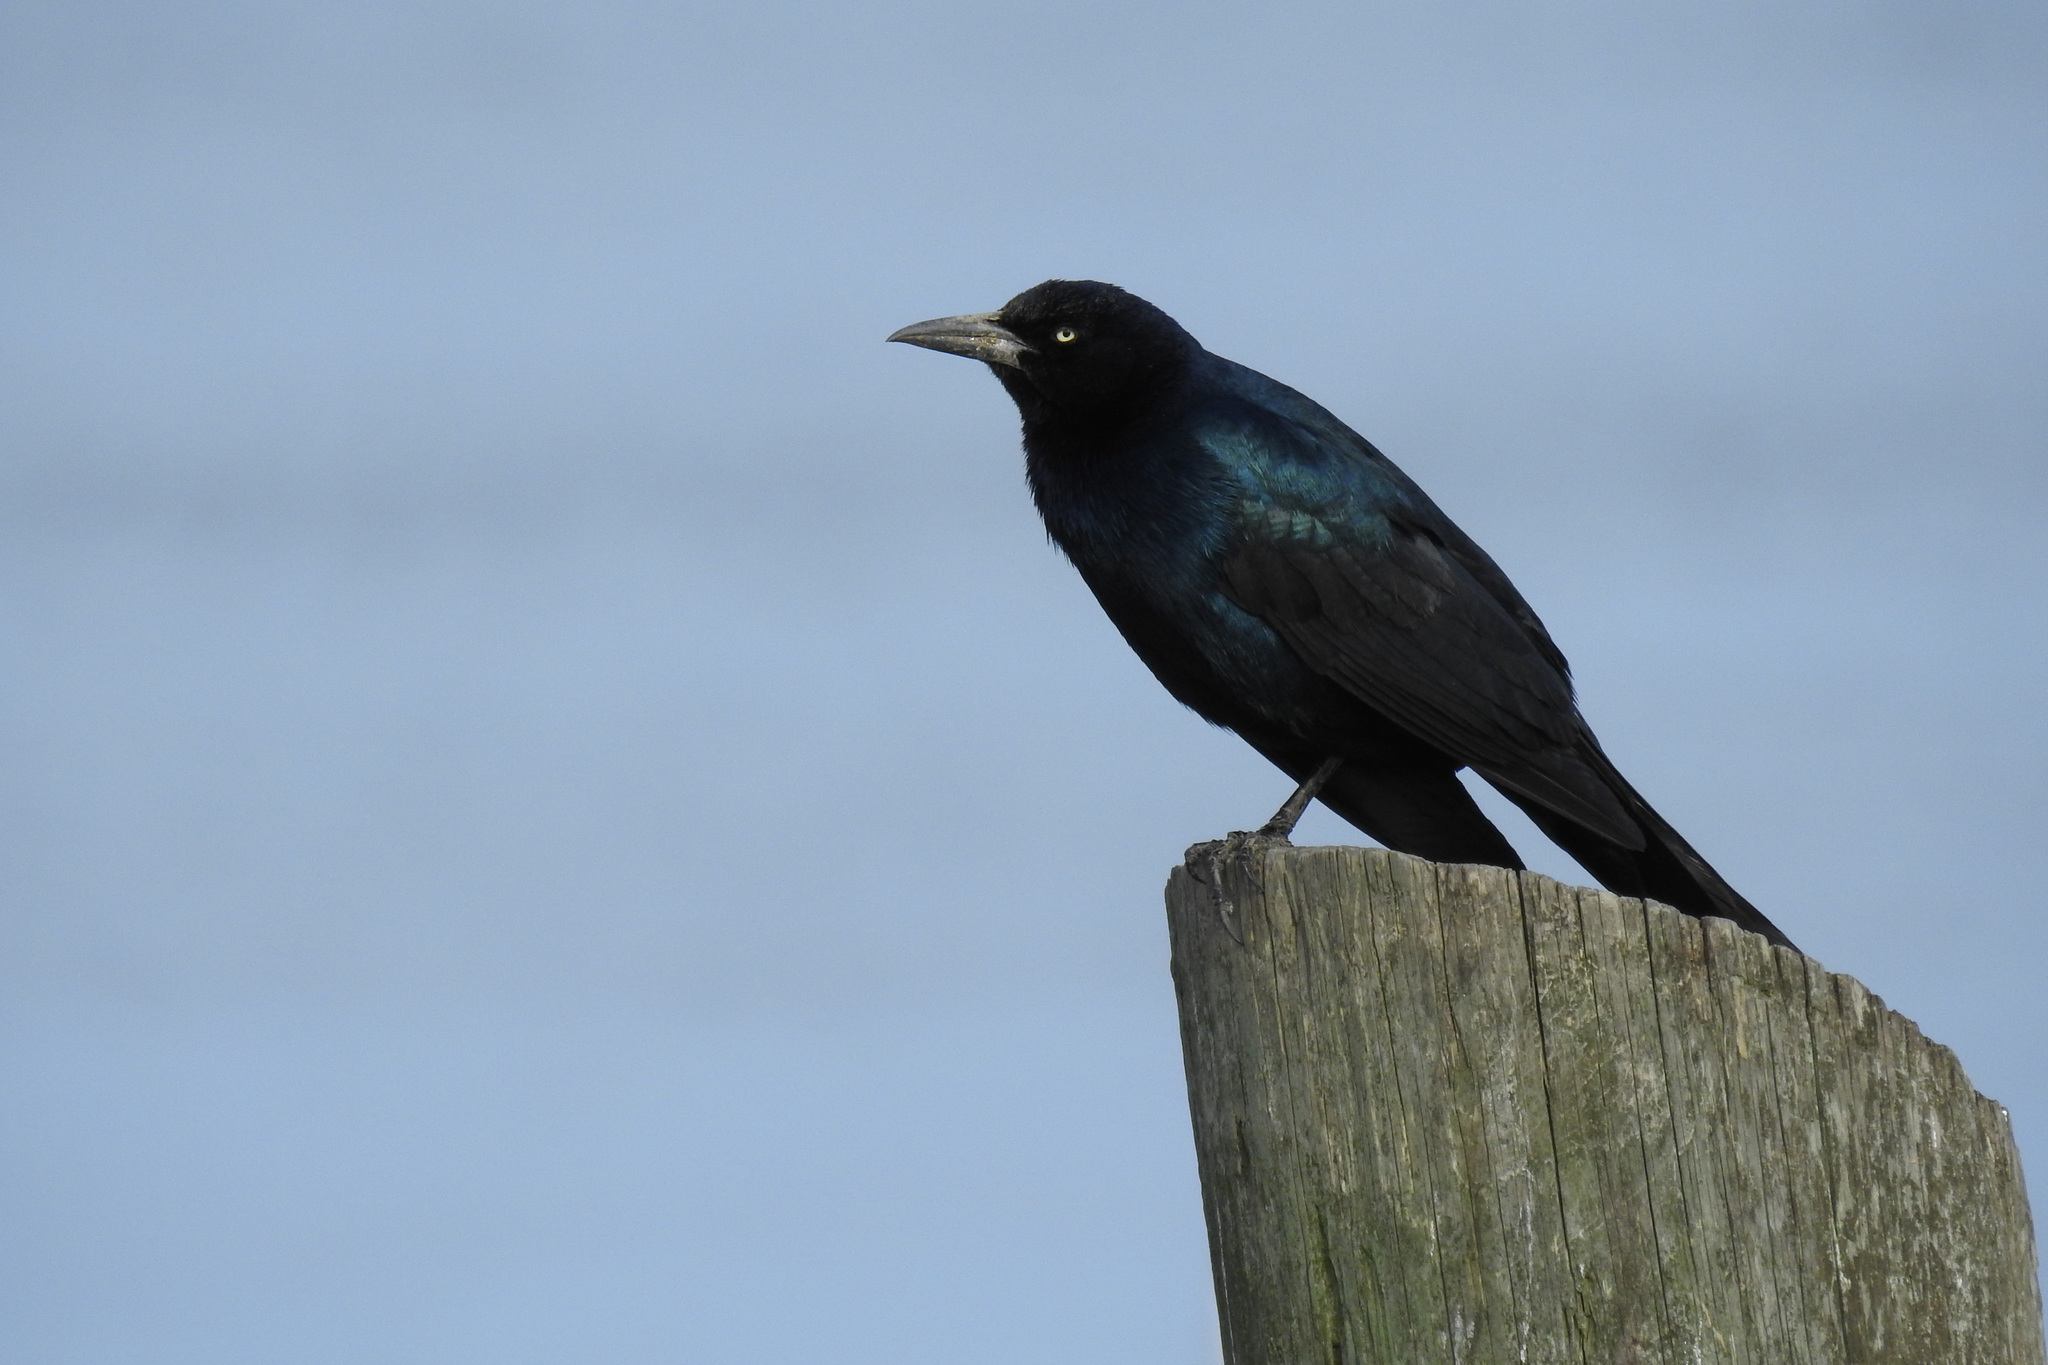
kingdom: Animalia
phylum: Chordata
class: Aves
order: Passeriformes
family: Icteridae
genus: Quiscalus
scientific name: Quiscalus major
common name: Boat-tailed grackle
